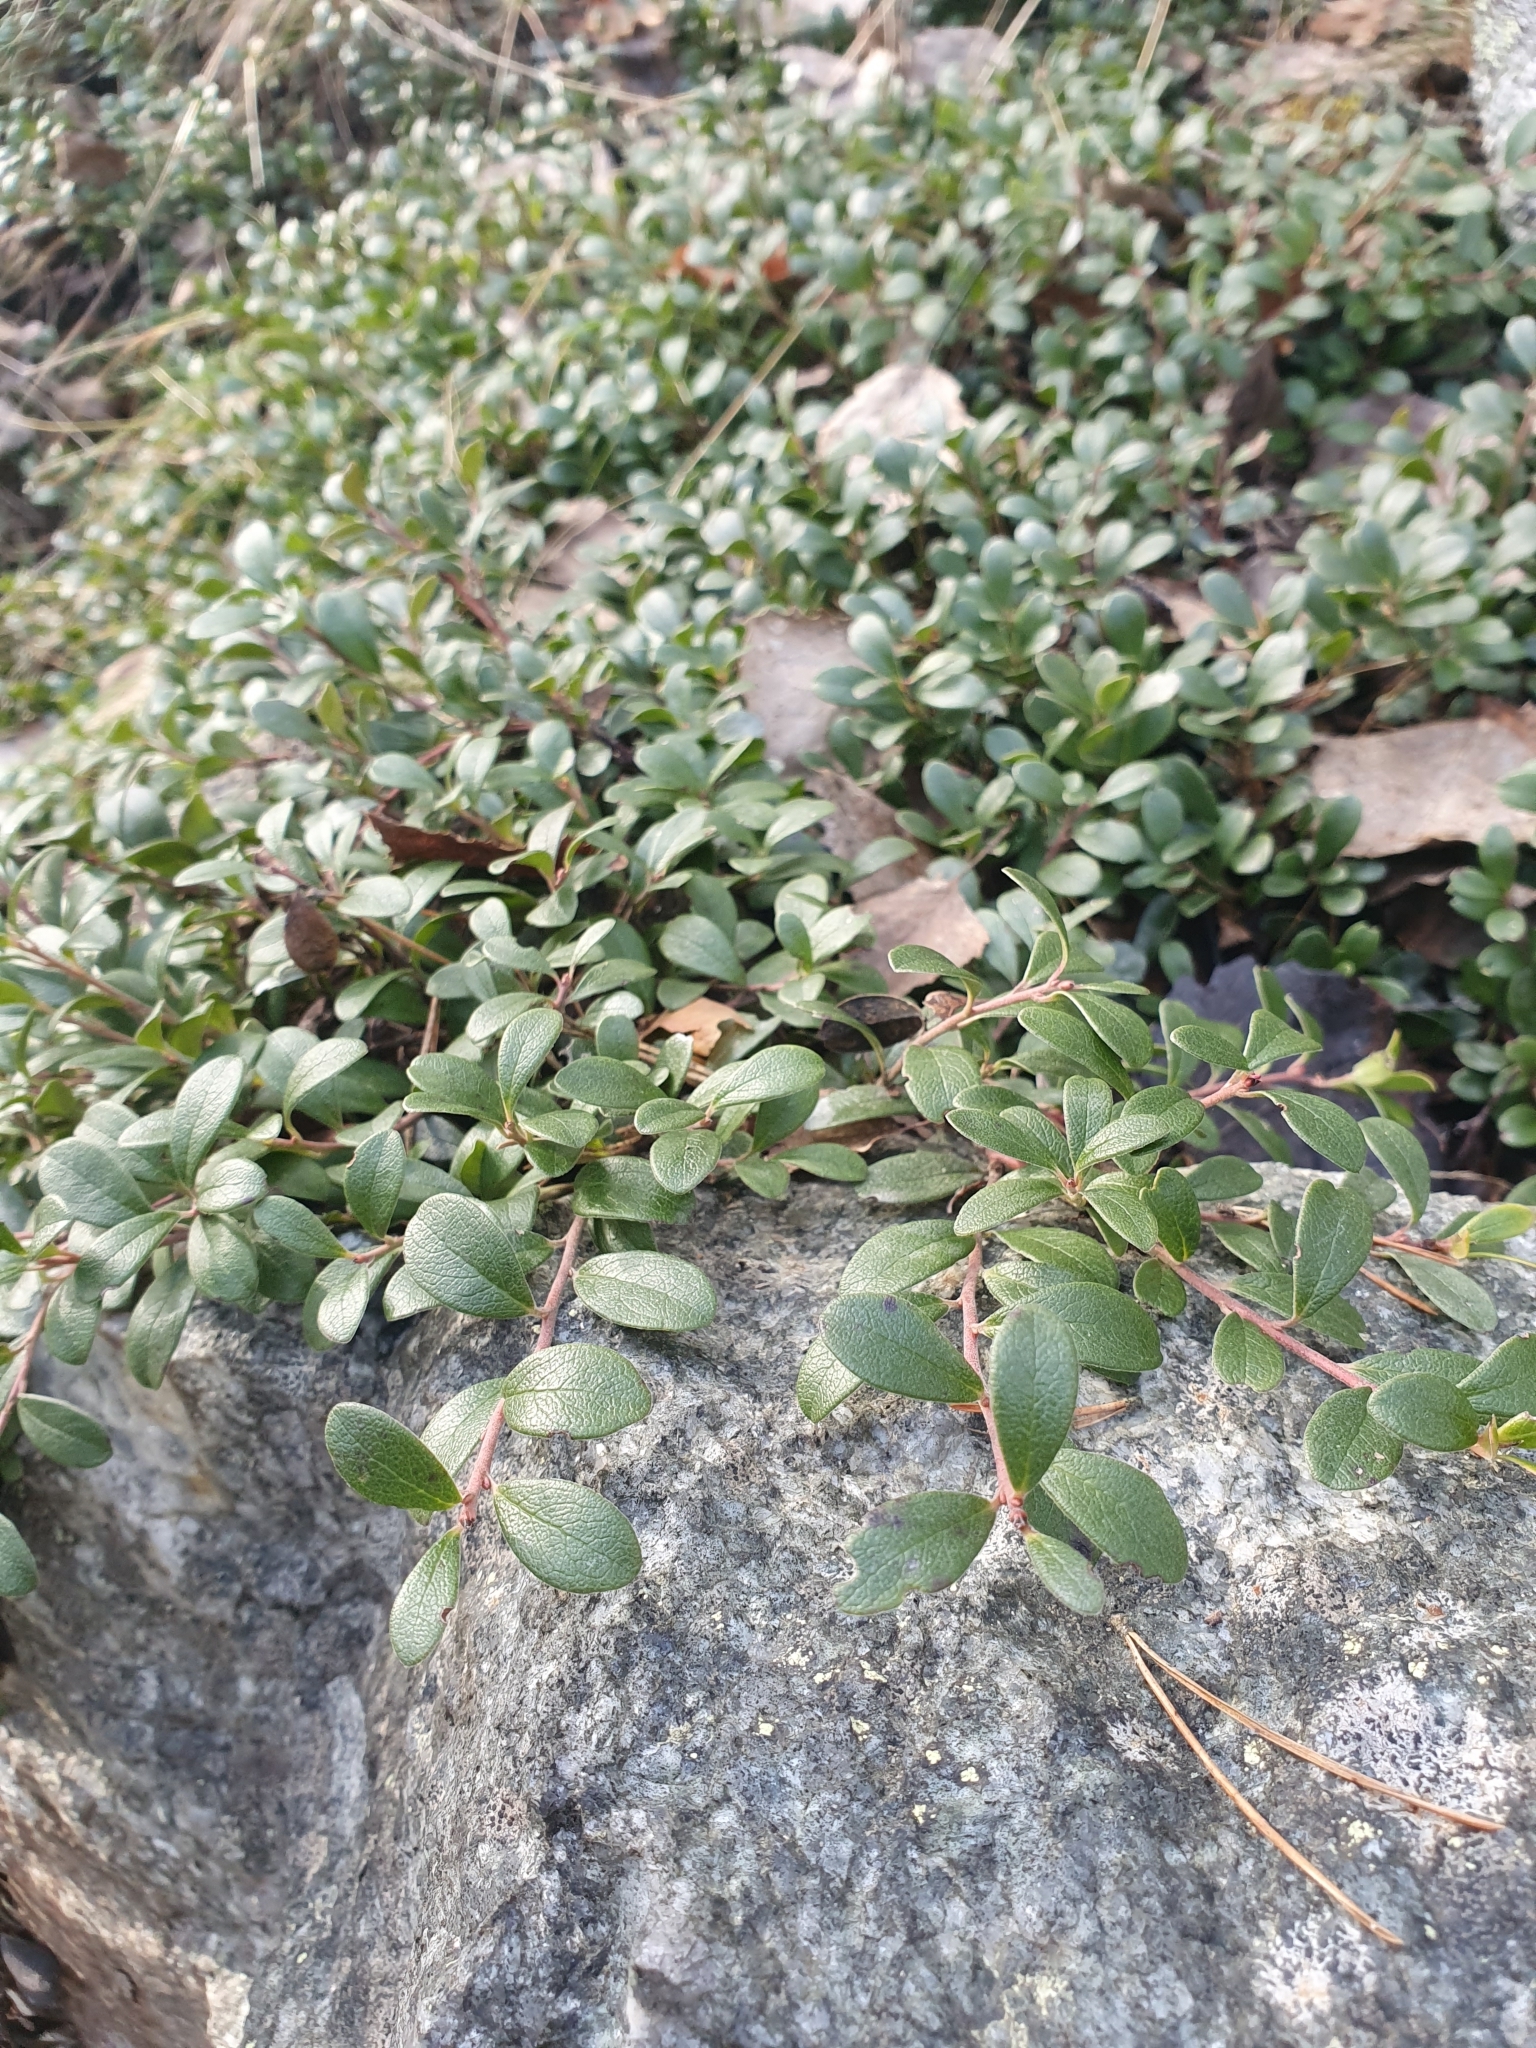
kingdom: Plantae
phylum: Tracheophyta
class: Magnoliopsida
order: Ericales
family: Ericaceae
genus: Arctostaphylos
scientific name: Arctostaphylos uva-ursi
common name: Bearberry
